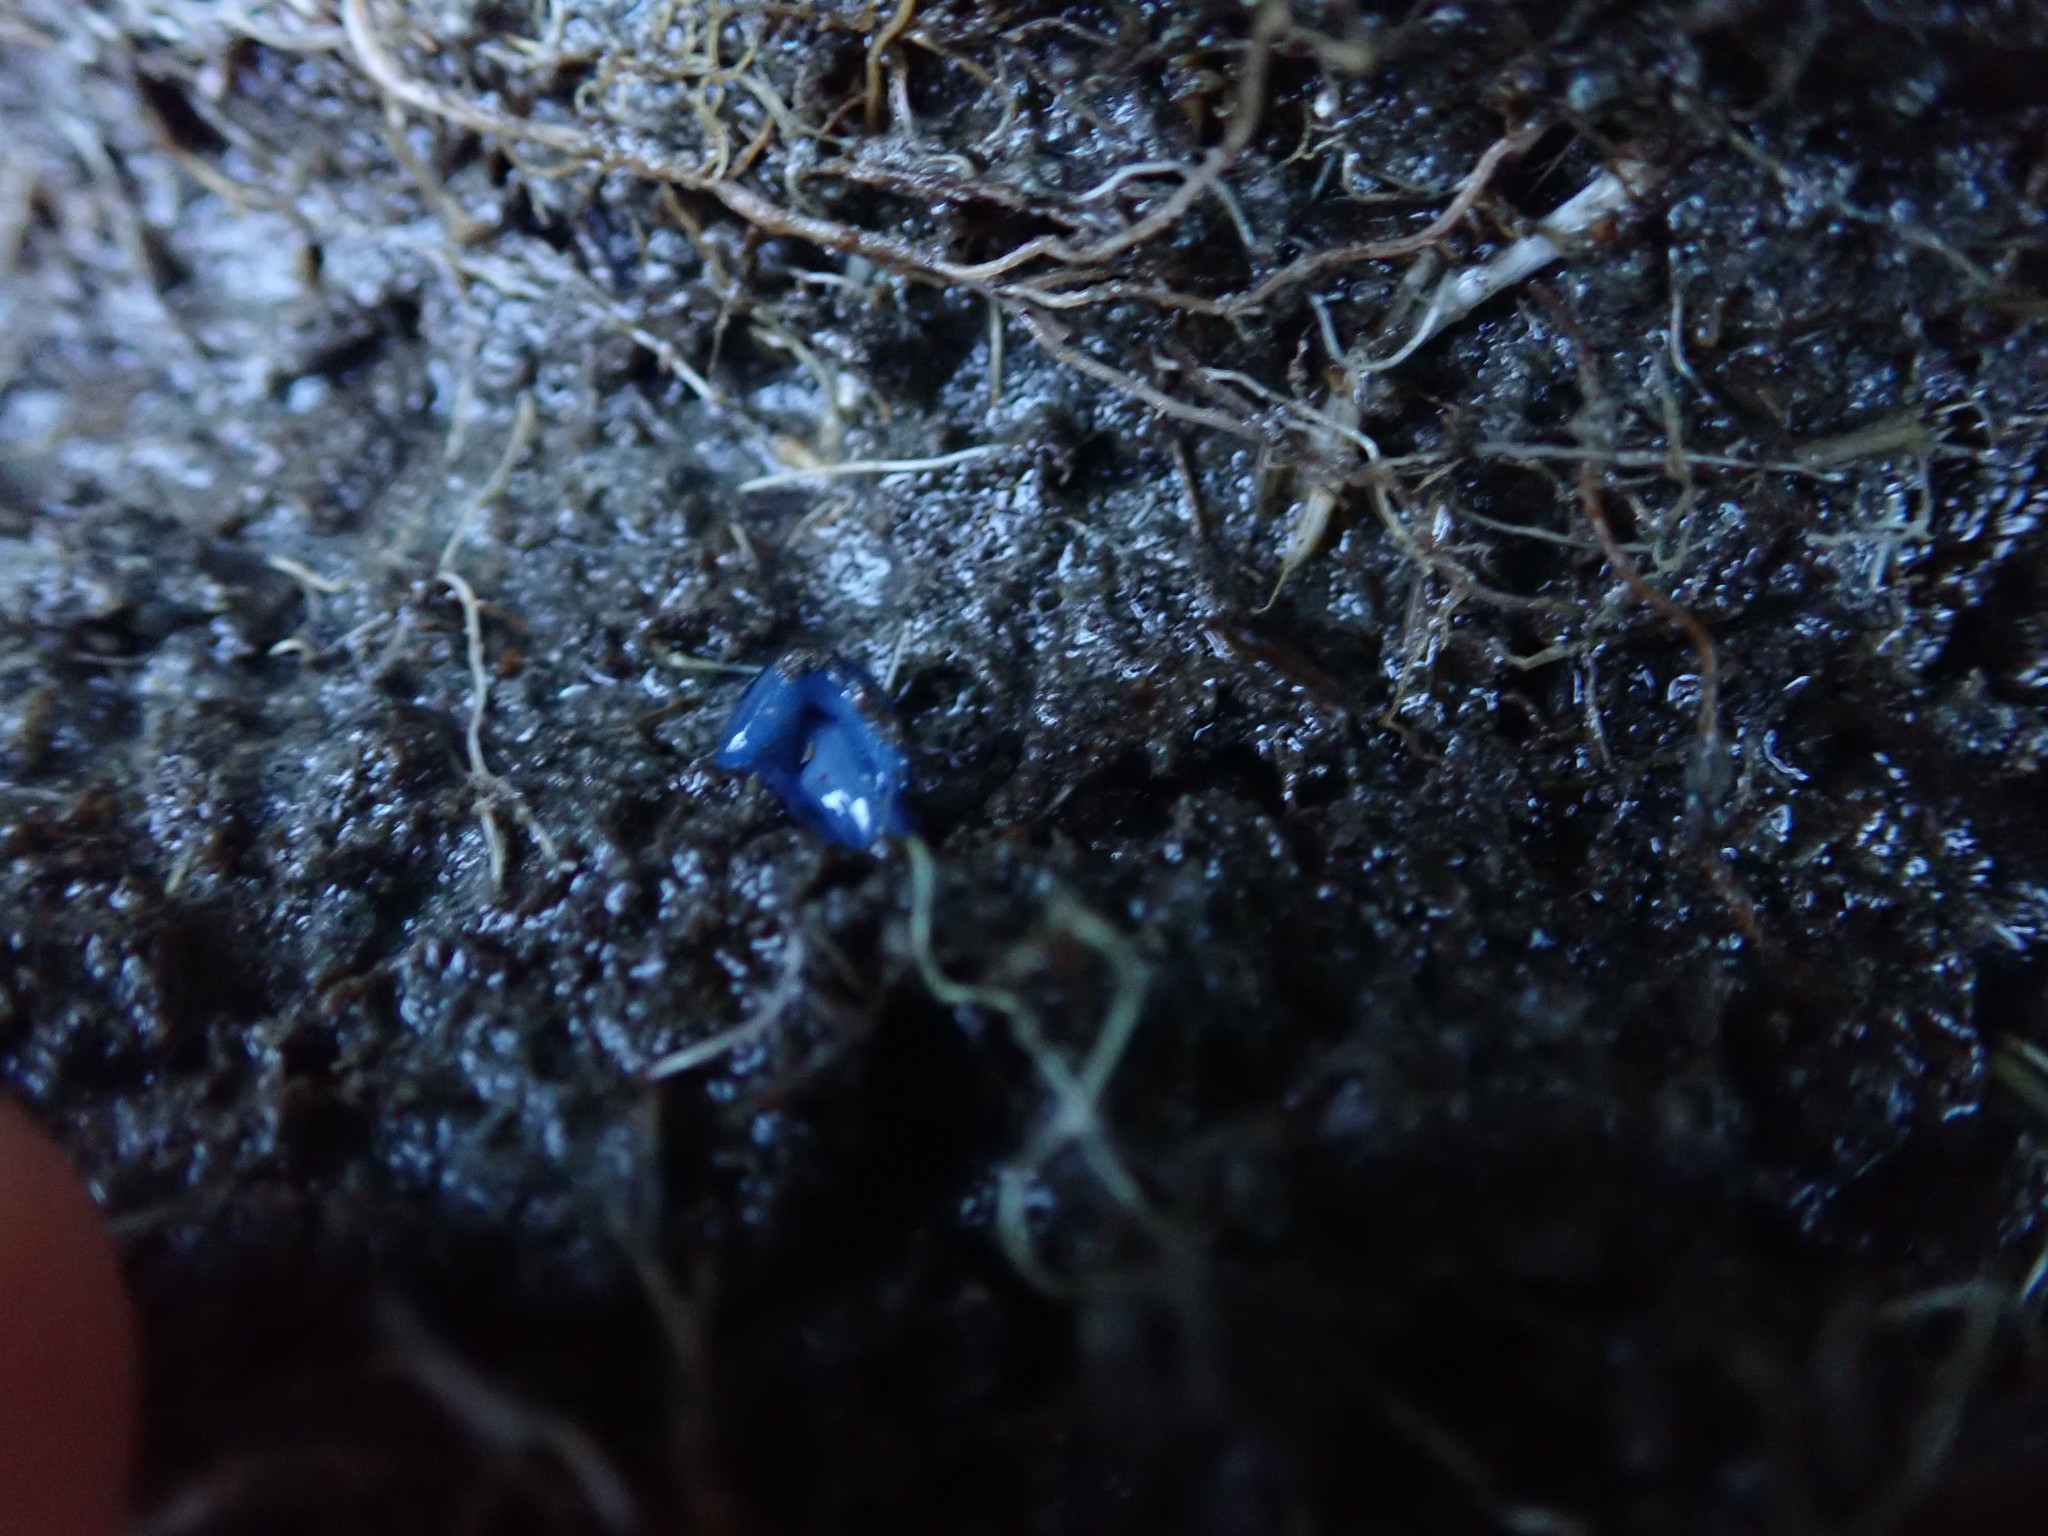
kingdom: Animalia
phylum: Platyhelminthes
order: Tricladida
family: Geoplanidae
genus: Caenoplana
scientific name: Caenoplana coerulea
